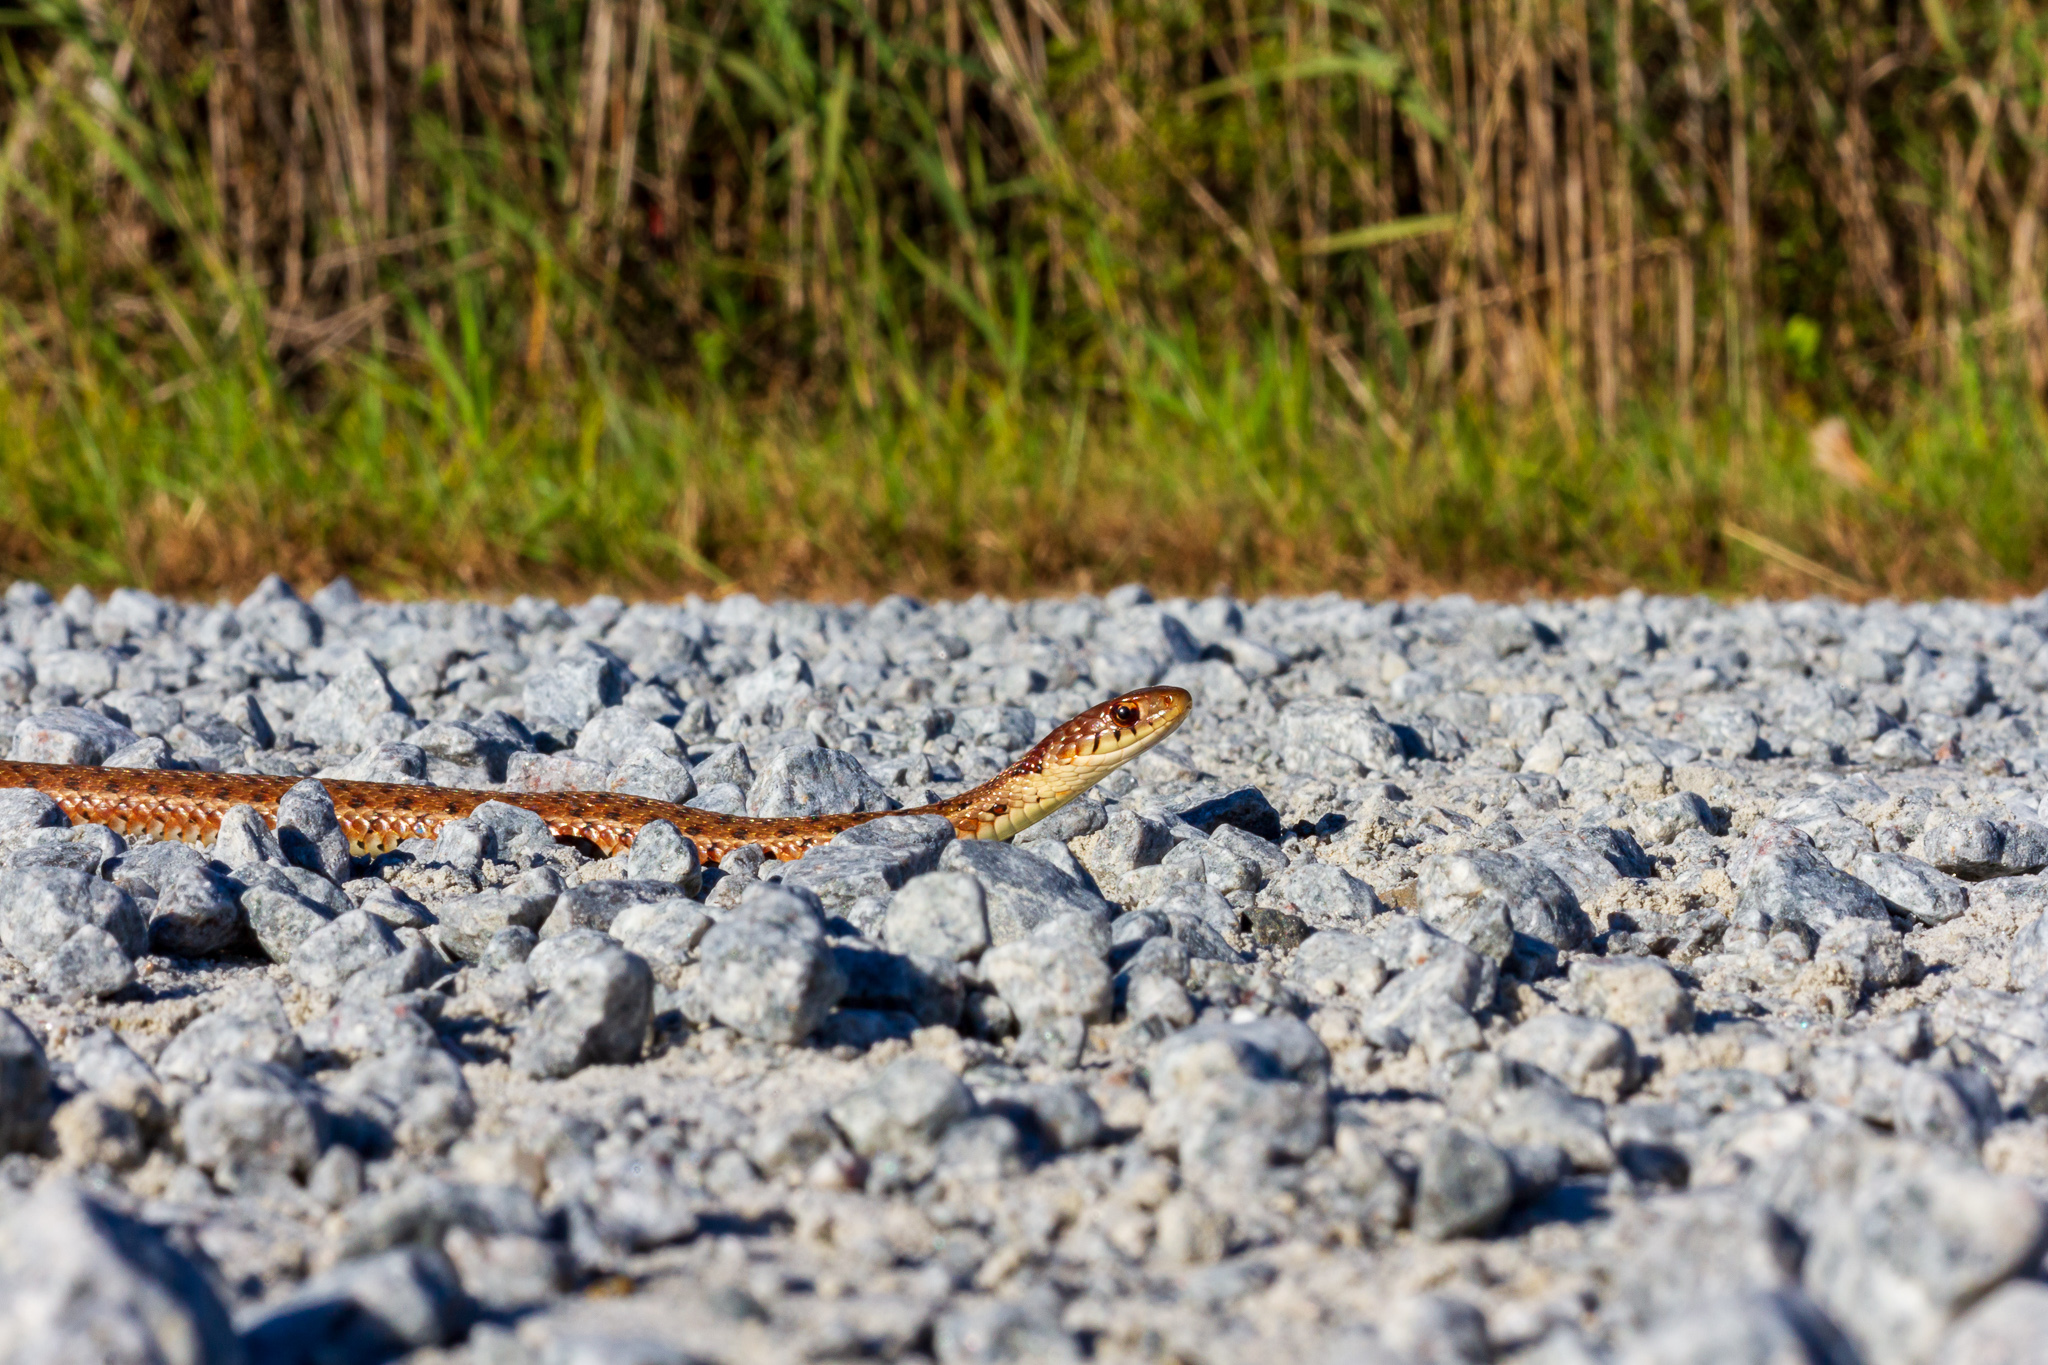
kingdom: Animalia
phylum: Chordata
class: Squamata
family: Colubridae
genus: Thamnophis
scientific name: Thamnophis sirtalis
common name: Common garter snake
